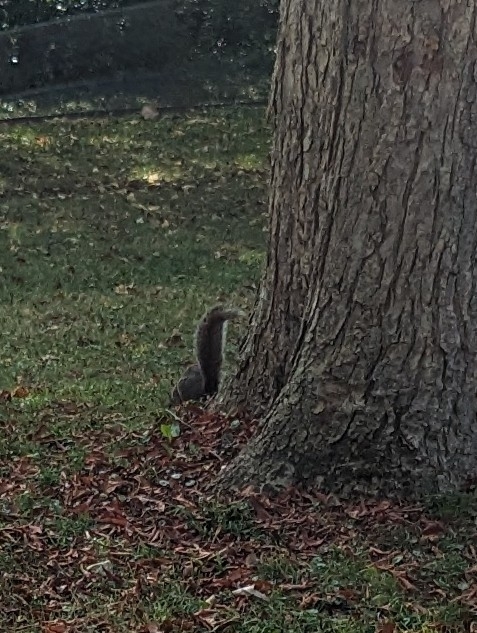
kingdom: Animalia
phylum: Chordata
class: Mammalia
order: Rodentia
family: Sciuridae
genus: Sciurus
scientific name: Sciurus carolinensis
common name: Eastern gray squirrel
